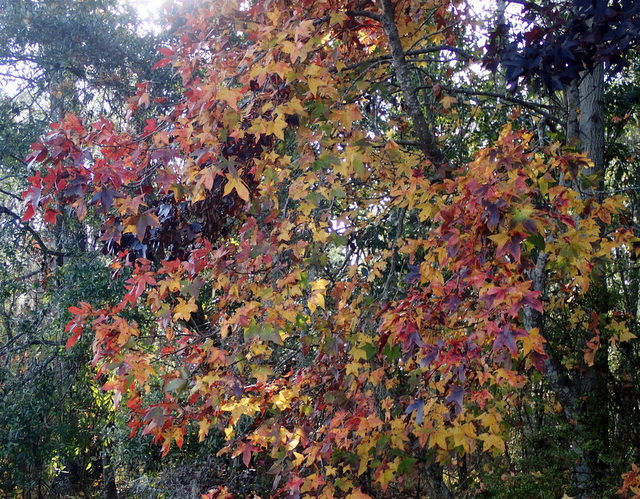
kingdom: Plantae
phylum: Tracheophyta
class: Magnoliopsida
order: Saxifragales
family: Altingiaceae
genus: Liquidambar
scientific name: Liquidambar styraciflua
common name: Sweet gum
